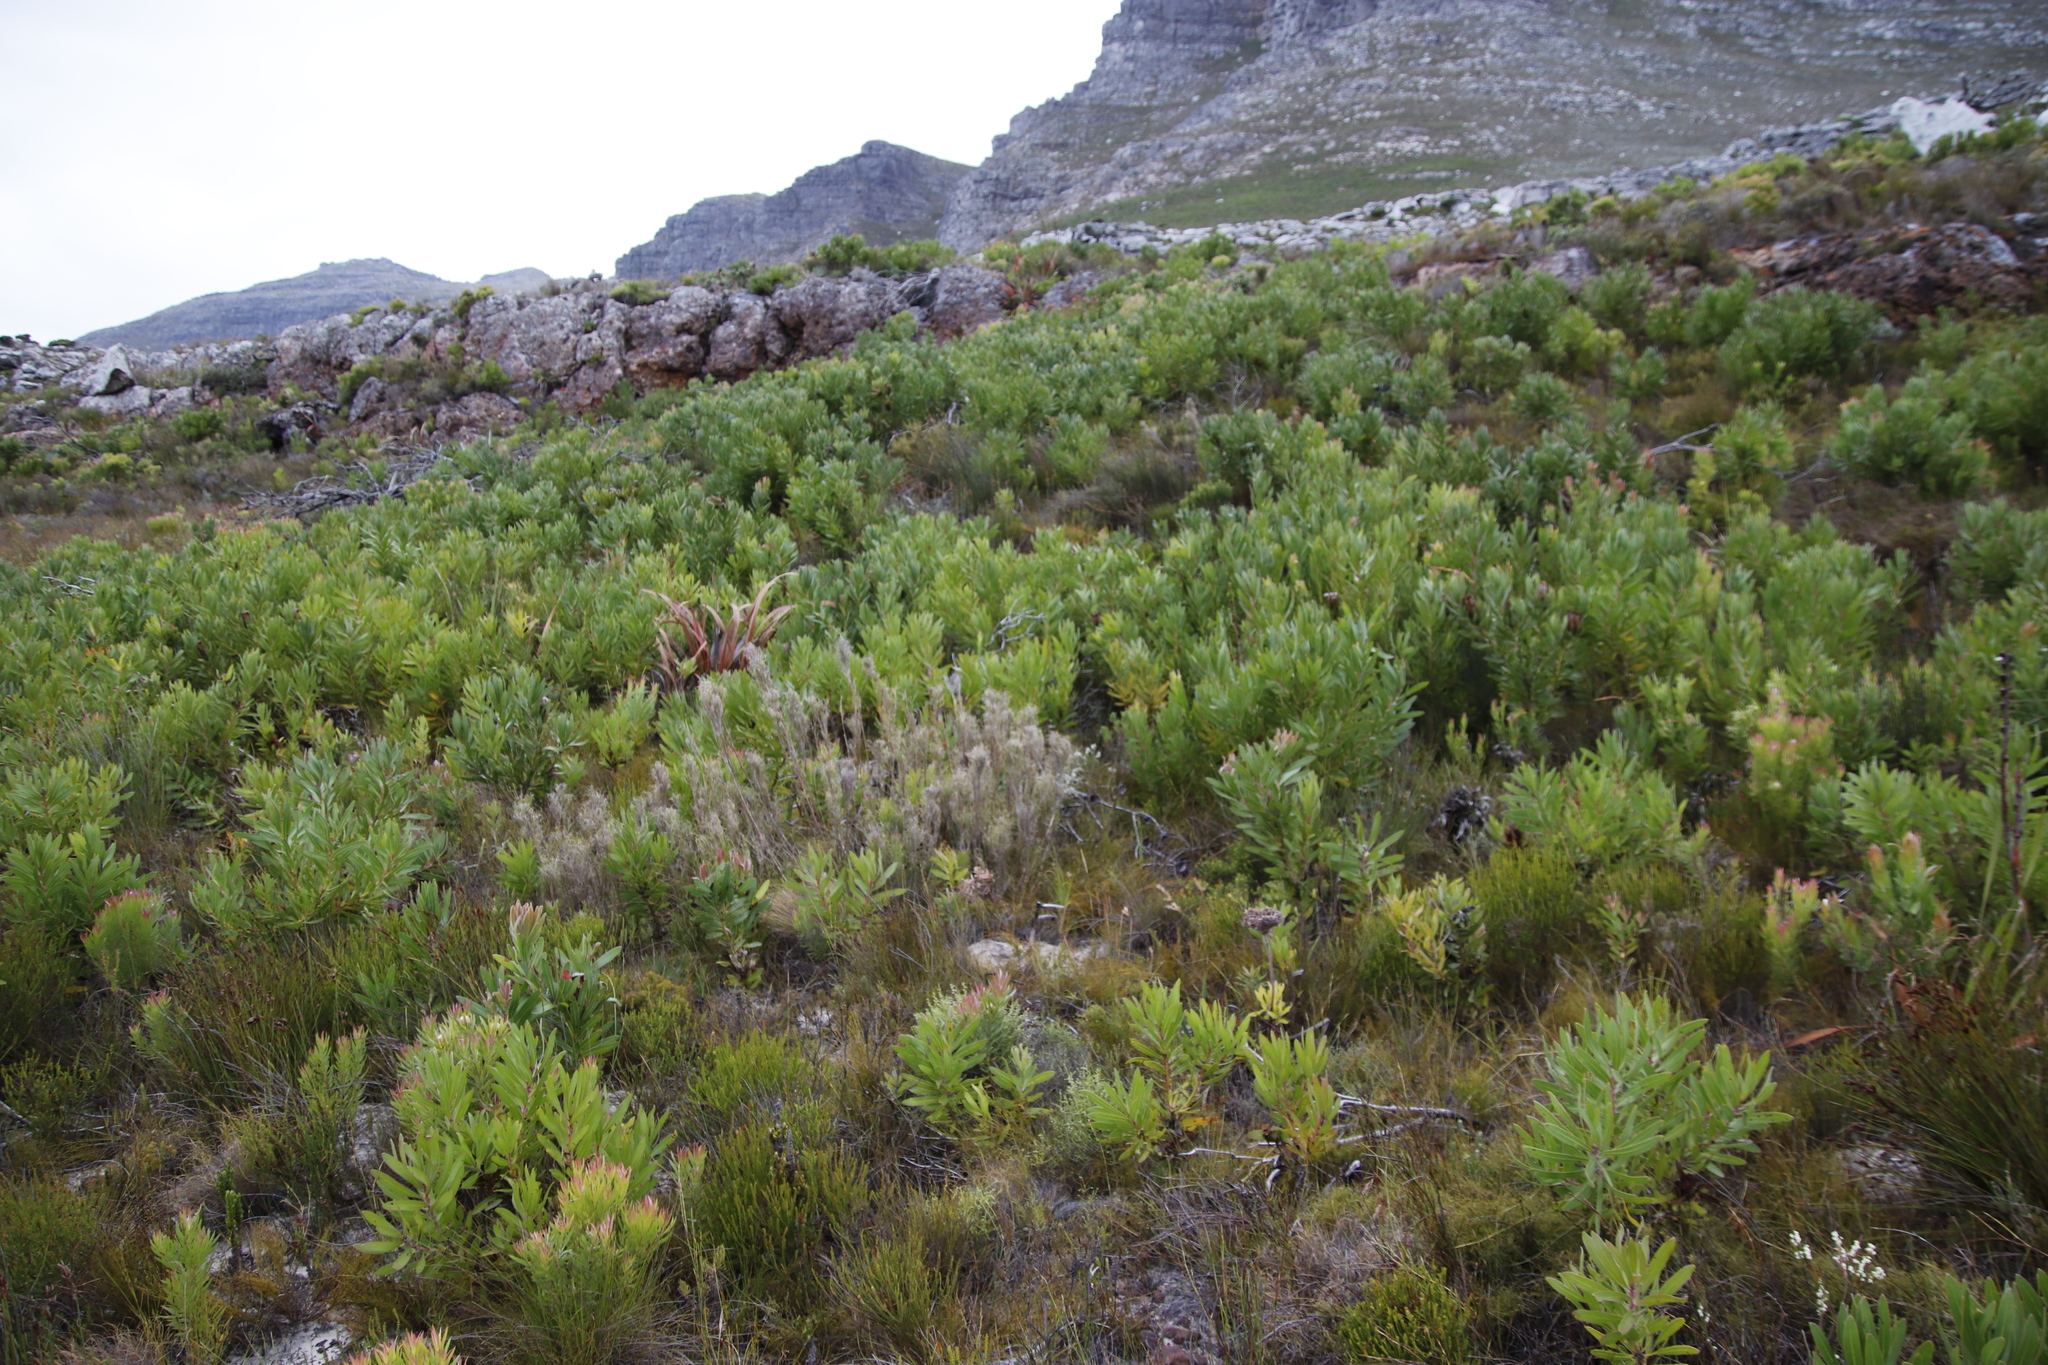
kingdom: Plantae
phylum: Tracheophyta
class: Magnoliopsida
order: Proteales
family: Proteaceae
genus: Protea
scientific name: Protea lepidocarpodendron
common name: Black-bearded protea
